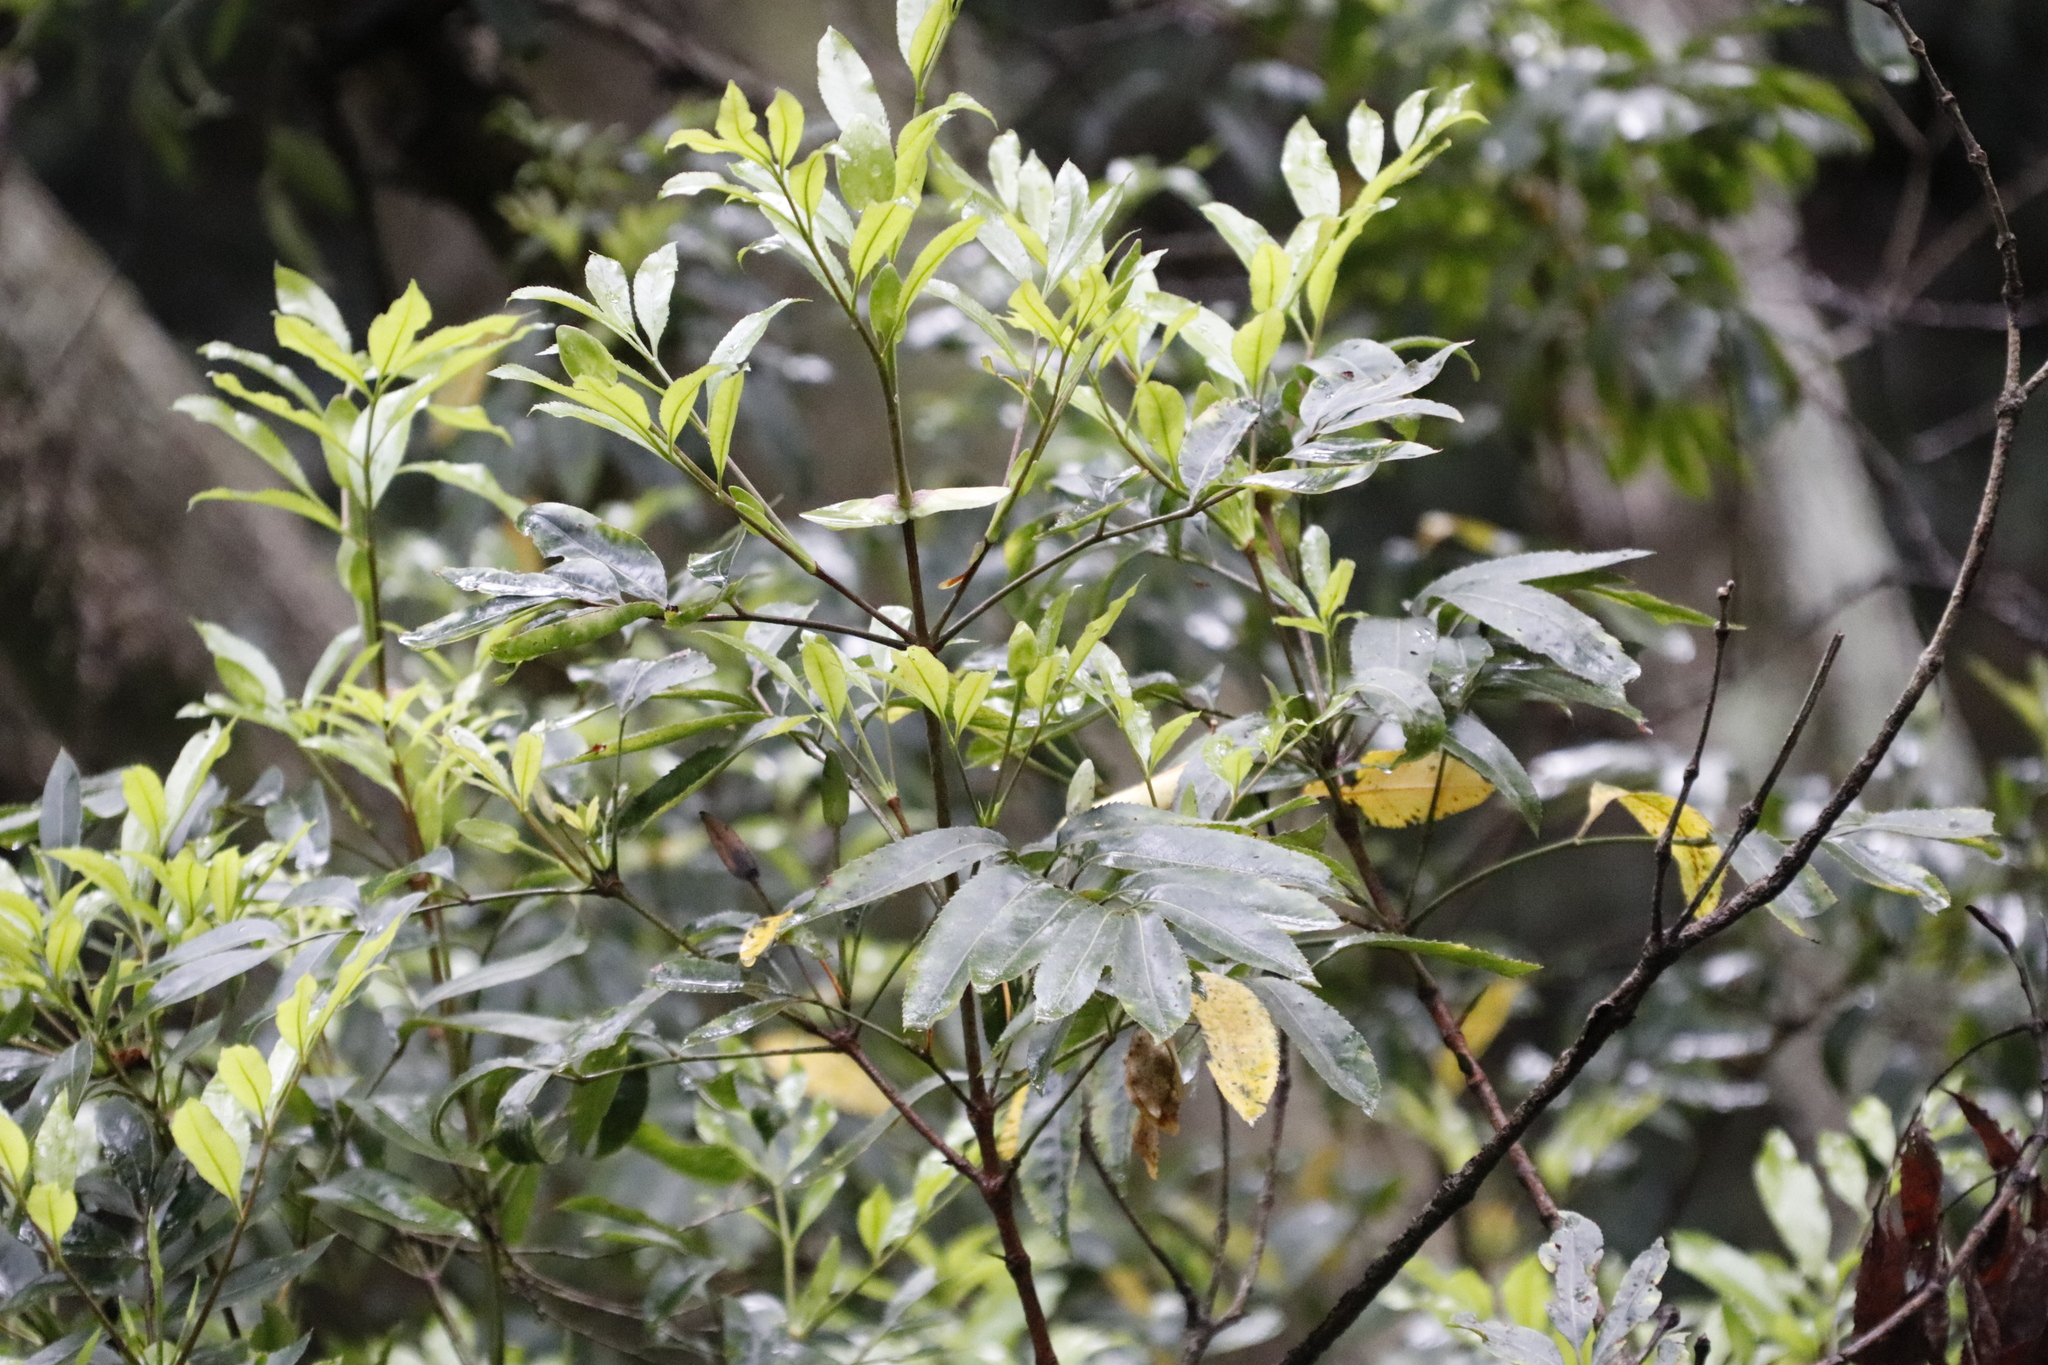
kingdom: Plantae
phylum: Tracheophyta
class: Magnoliopsida
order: Oxalidales
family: Cunoniaceae
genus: Cunonia
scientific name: Cunonia capensis
